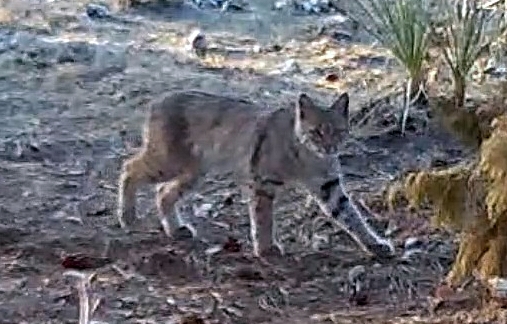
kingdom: Animalia
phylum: Chordata
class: Mammalia
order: Carnivora
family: Felidae
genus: Lynx
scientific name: Lynx rufus
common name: Bobcat
